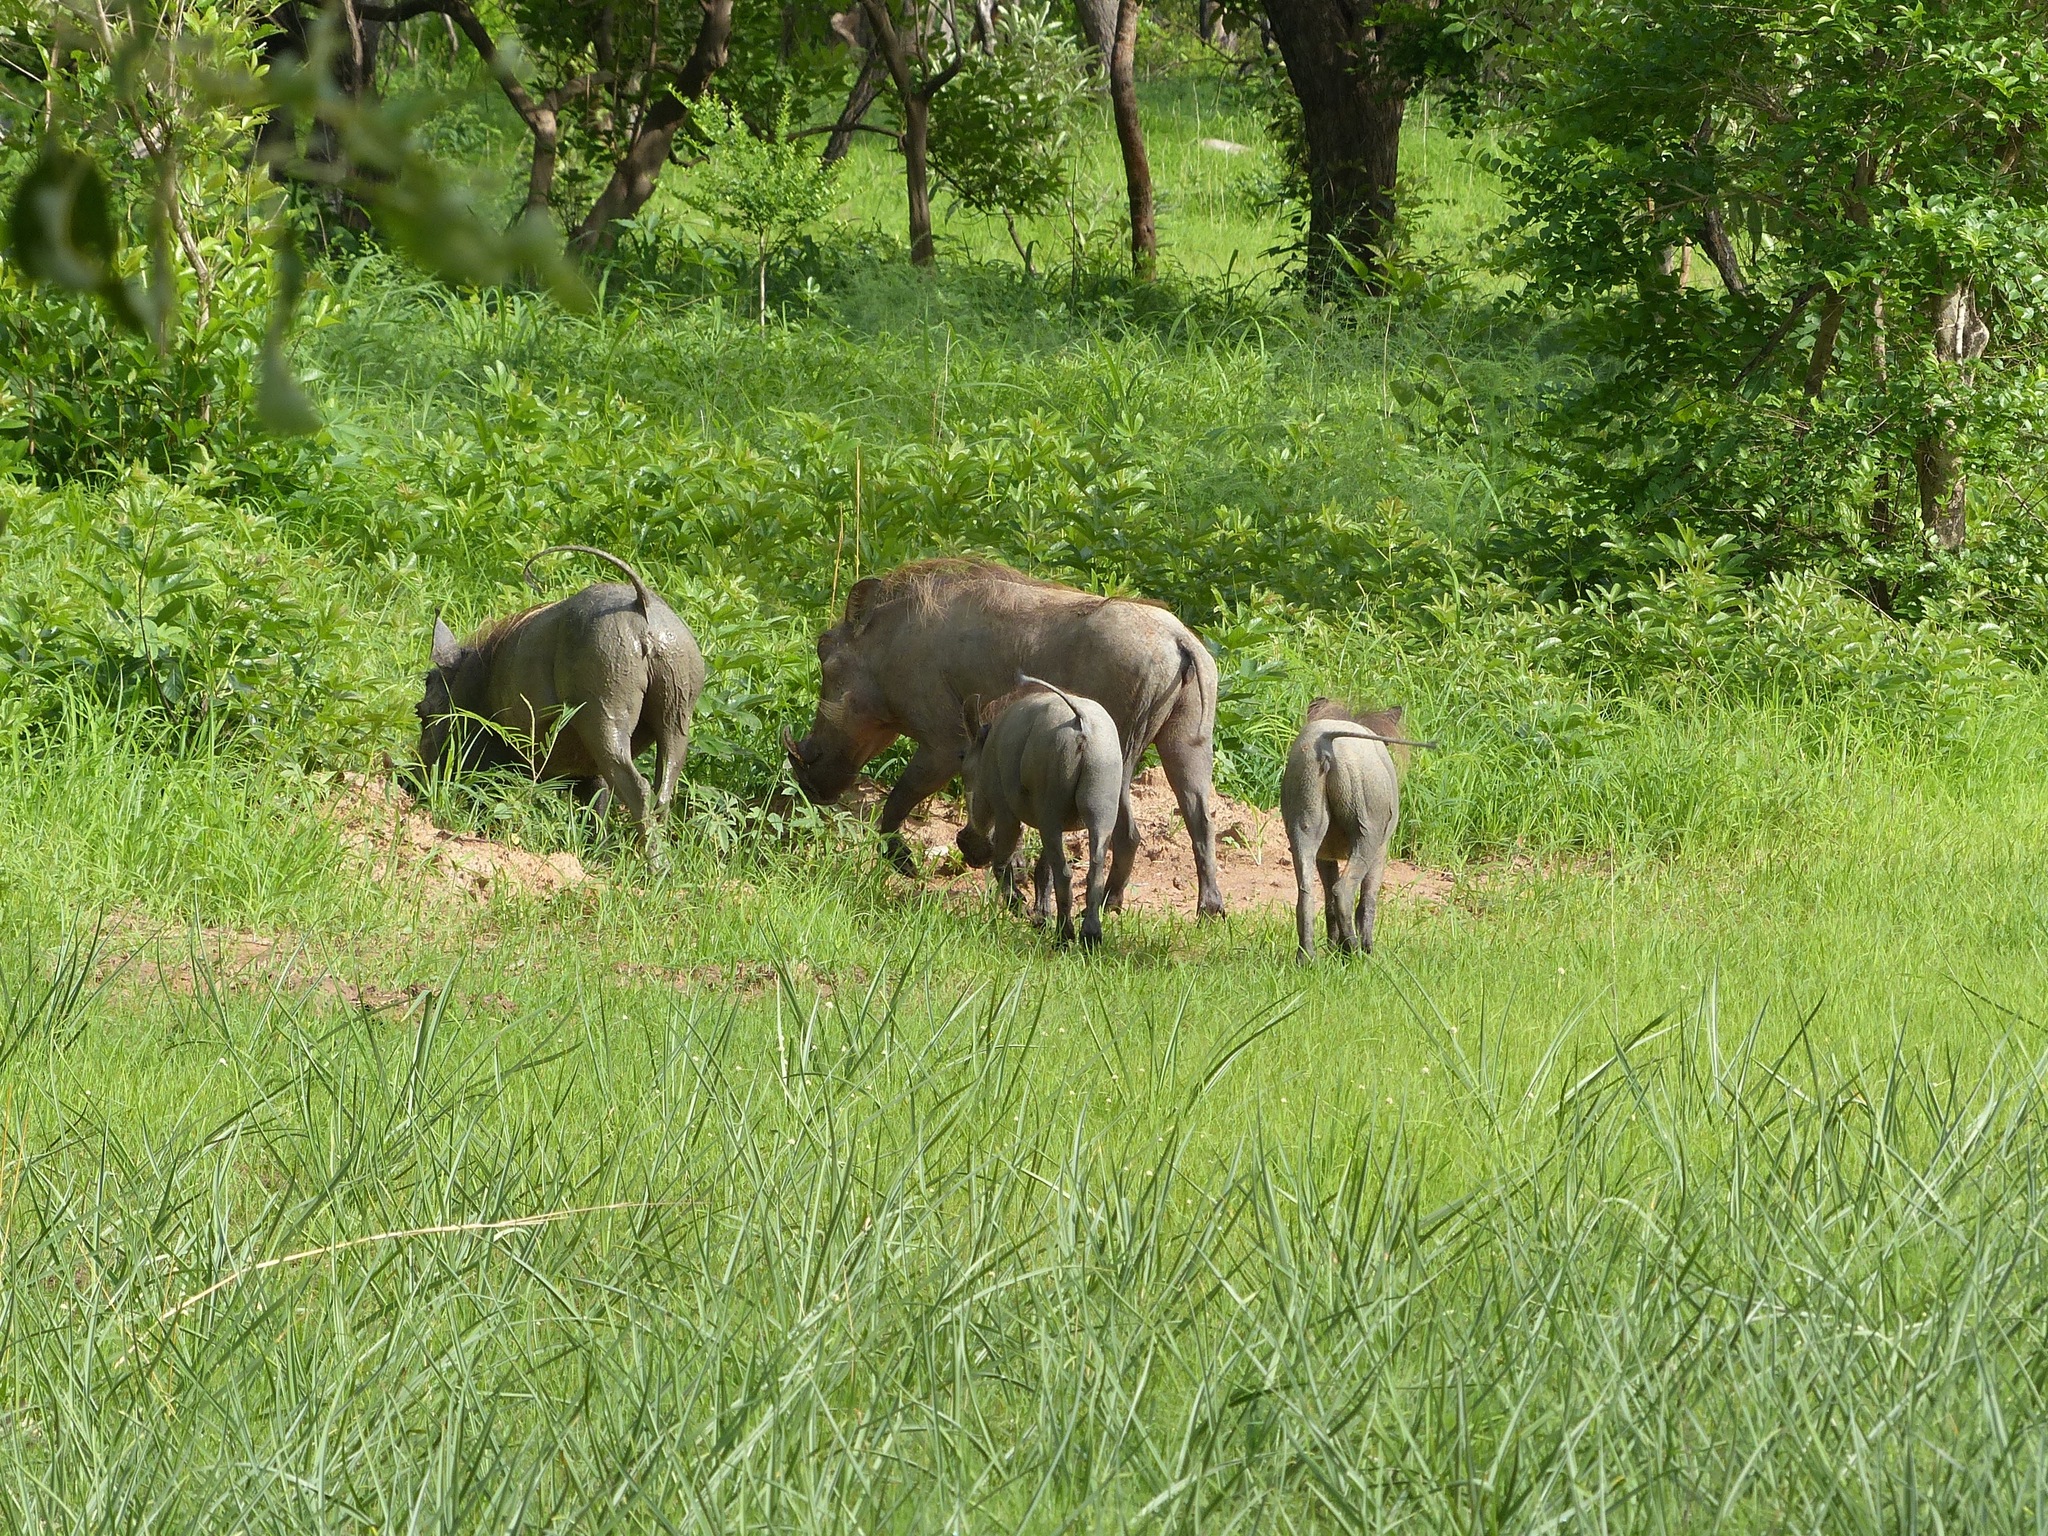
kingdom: Animalia
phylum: Chordata
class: Mammalia
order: Artiodactyla
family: Suidae
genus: Phacochoerus
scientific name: Phacochoerus africanus
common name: Common warthog
